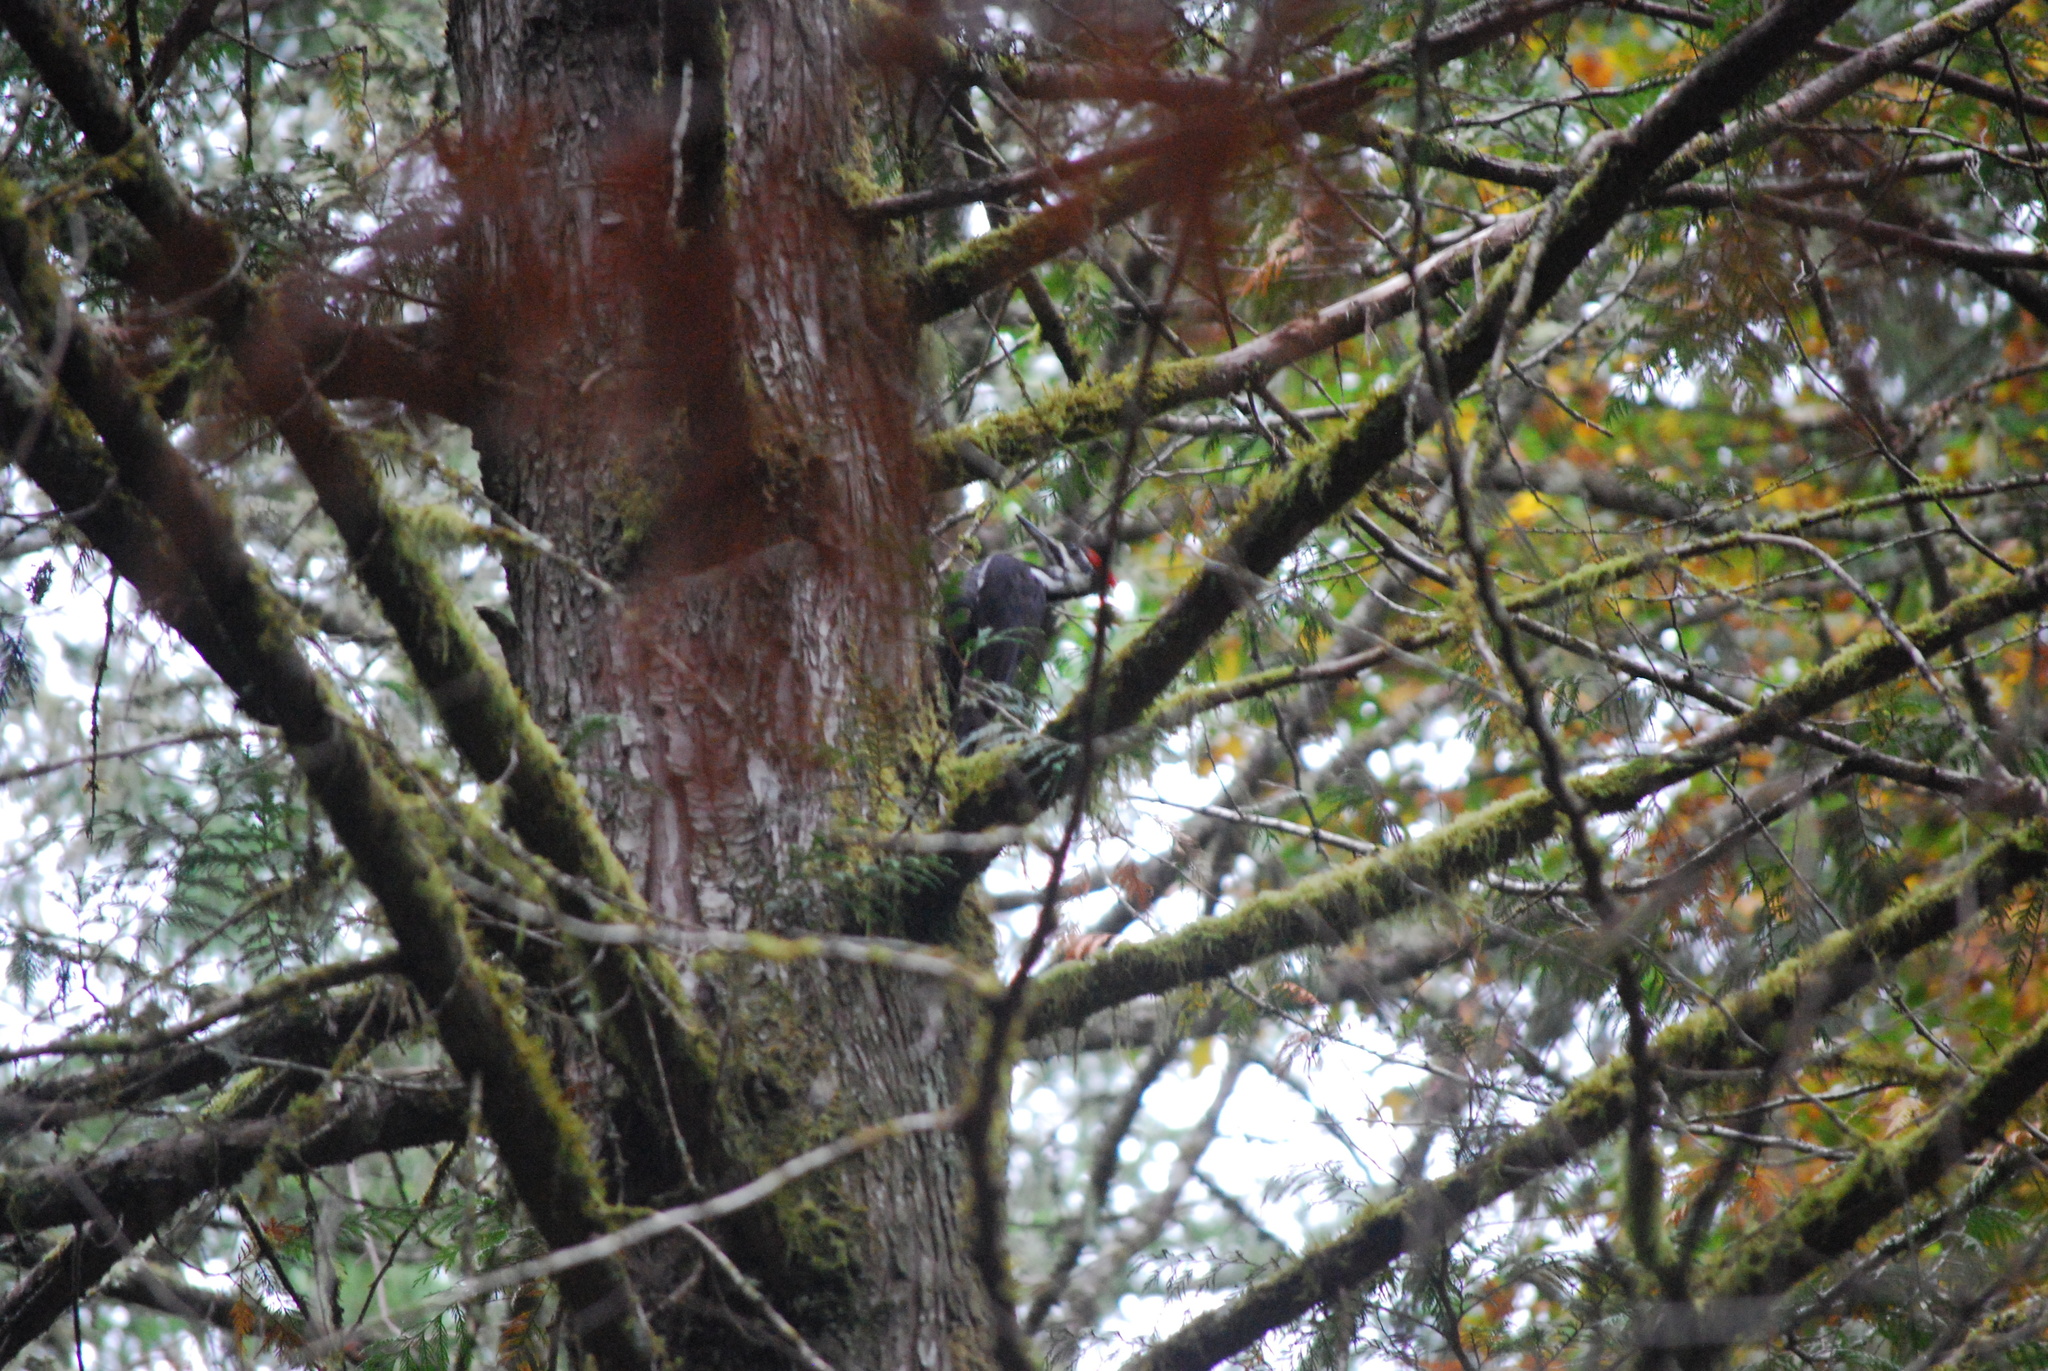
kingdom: Animalia
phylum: Chordata
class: Aves
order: Piciformes
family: Picidae
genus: Dryocopus
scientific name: Dryocopus pileatus
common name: Pileated woodpecker
